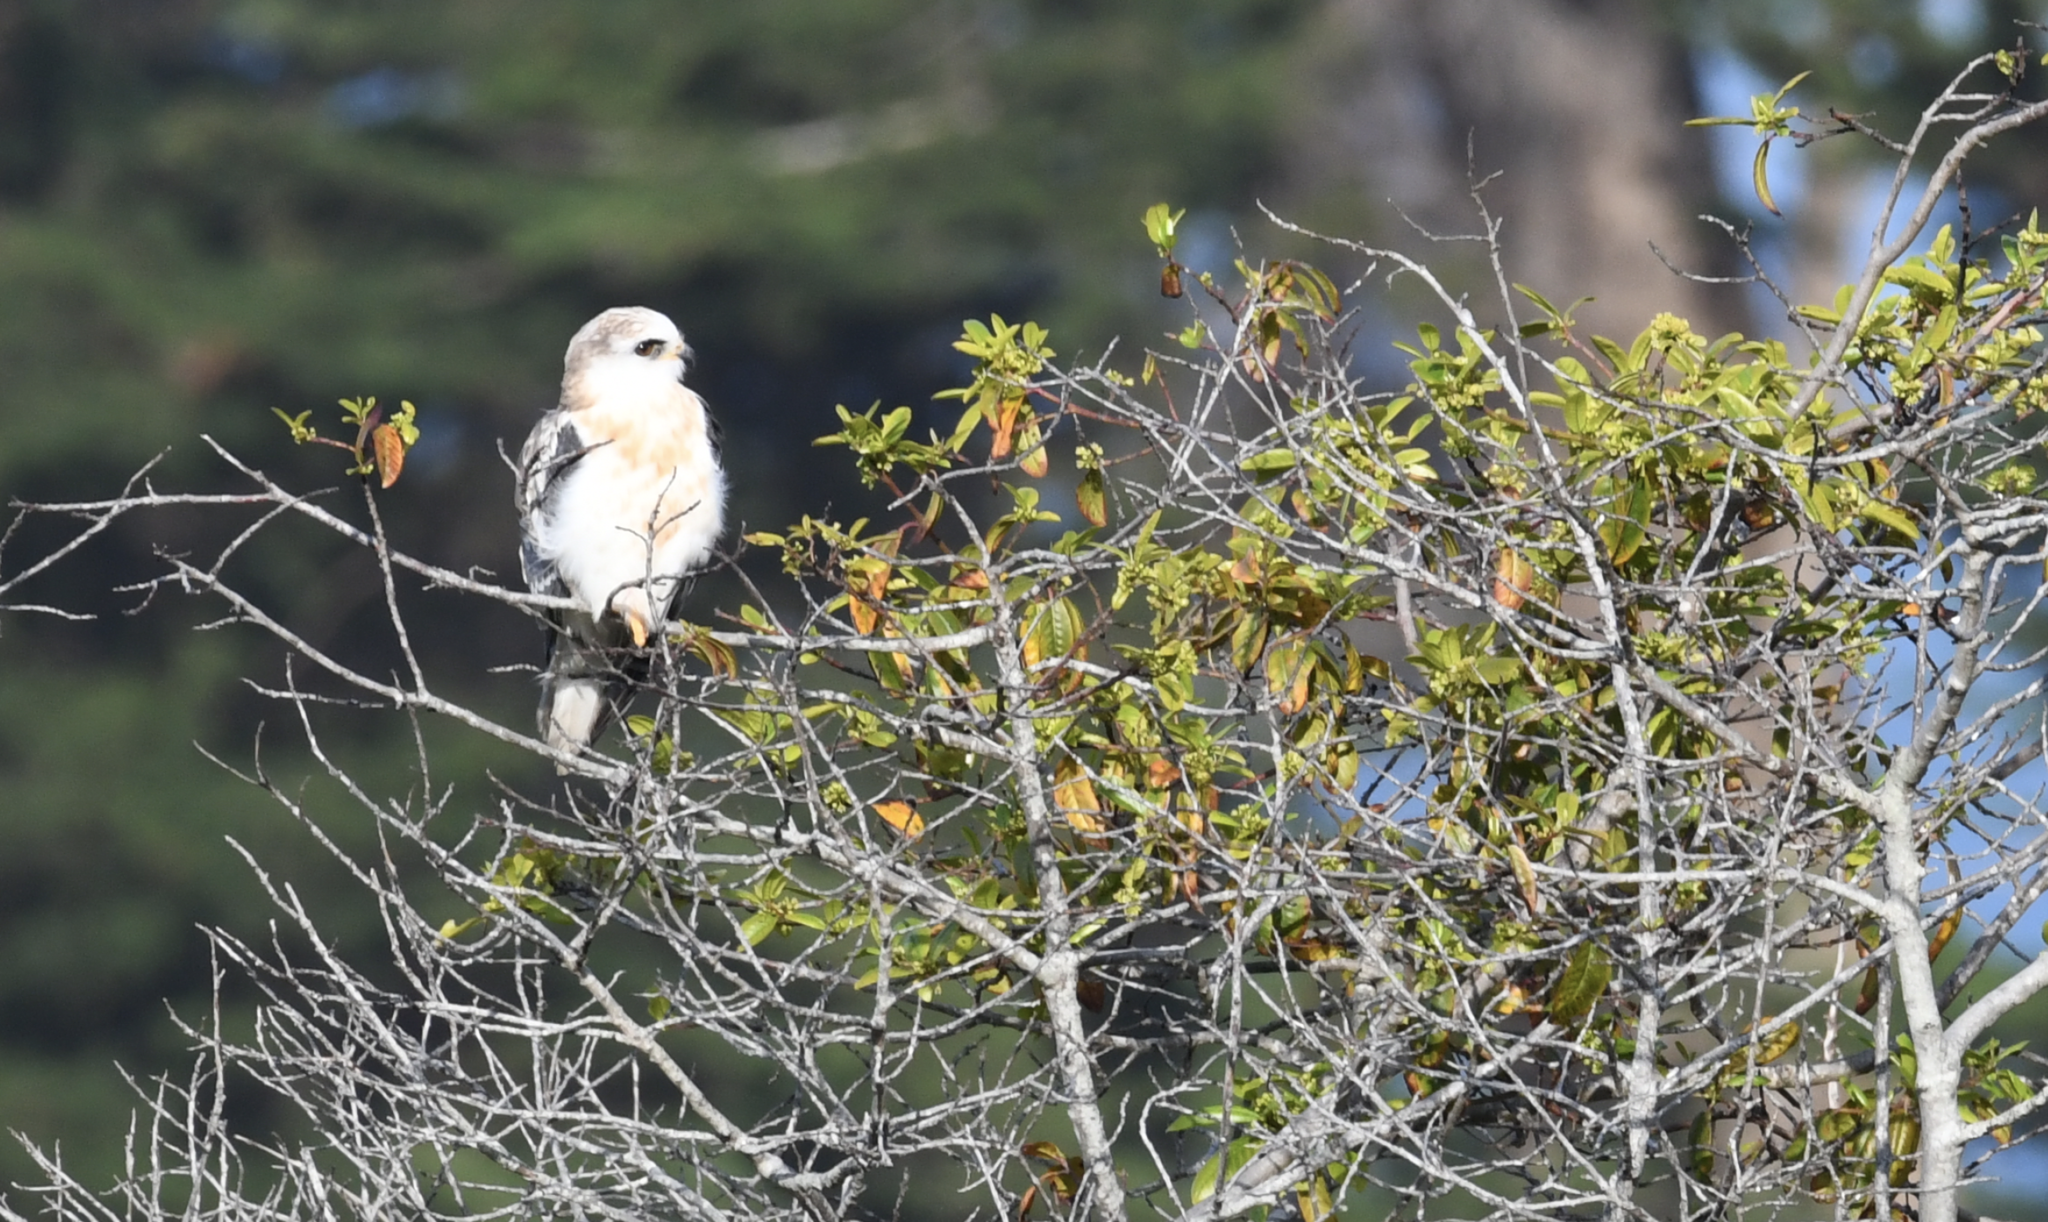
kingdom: Animalia
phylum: Chordata
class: Aves
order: Accipitriformes
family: Accipitridae
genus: Elanus
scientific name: Elanus leucurus
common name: White-tailed kite
